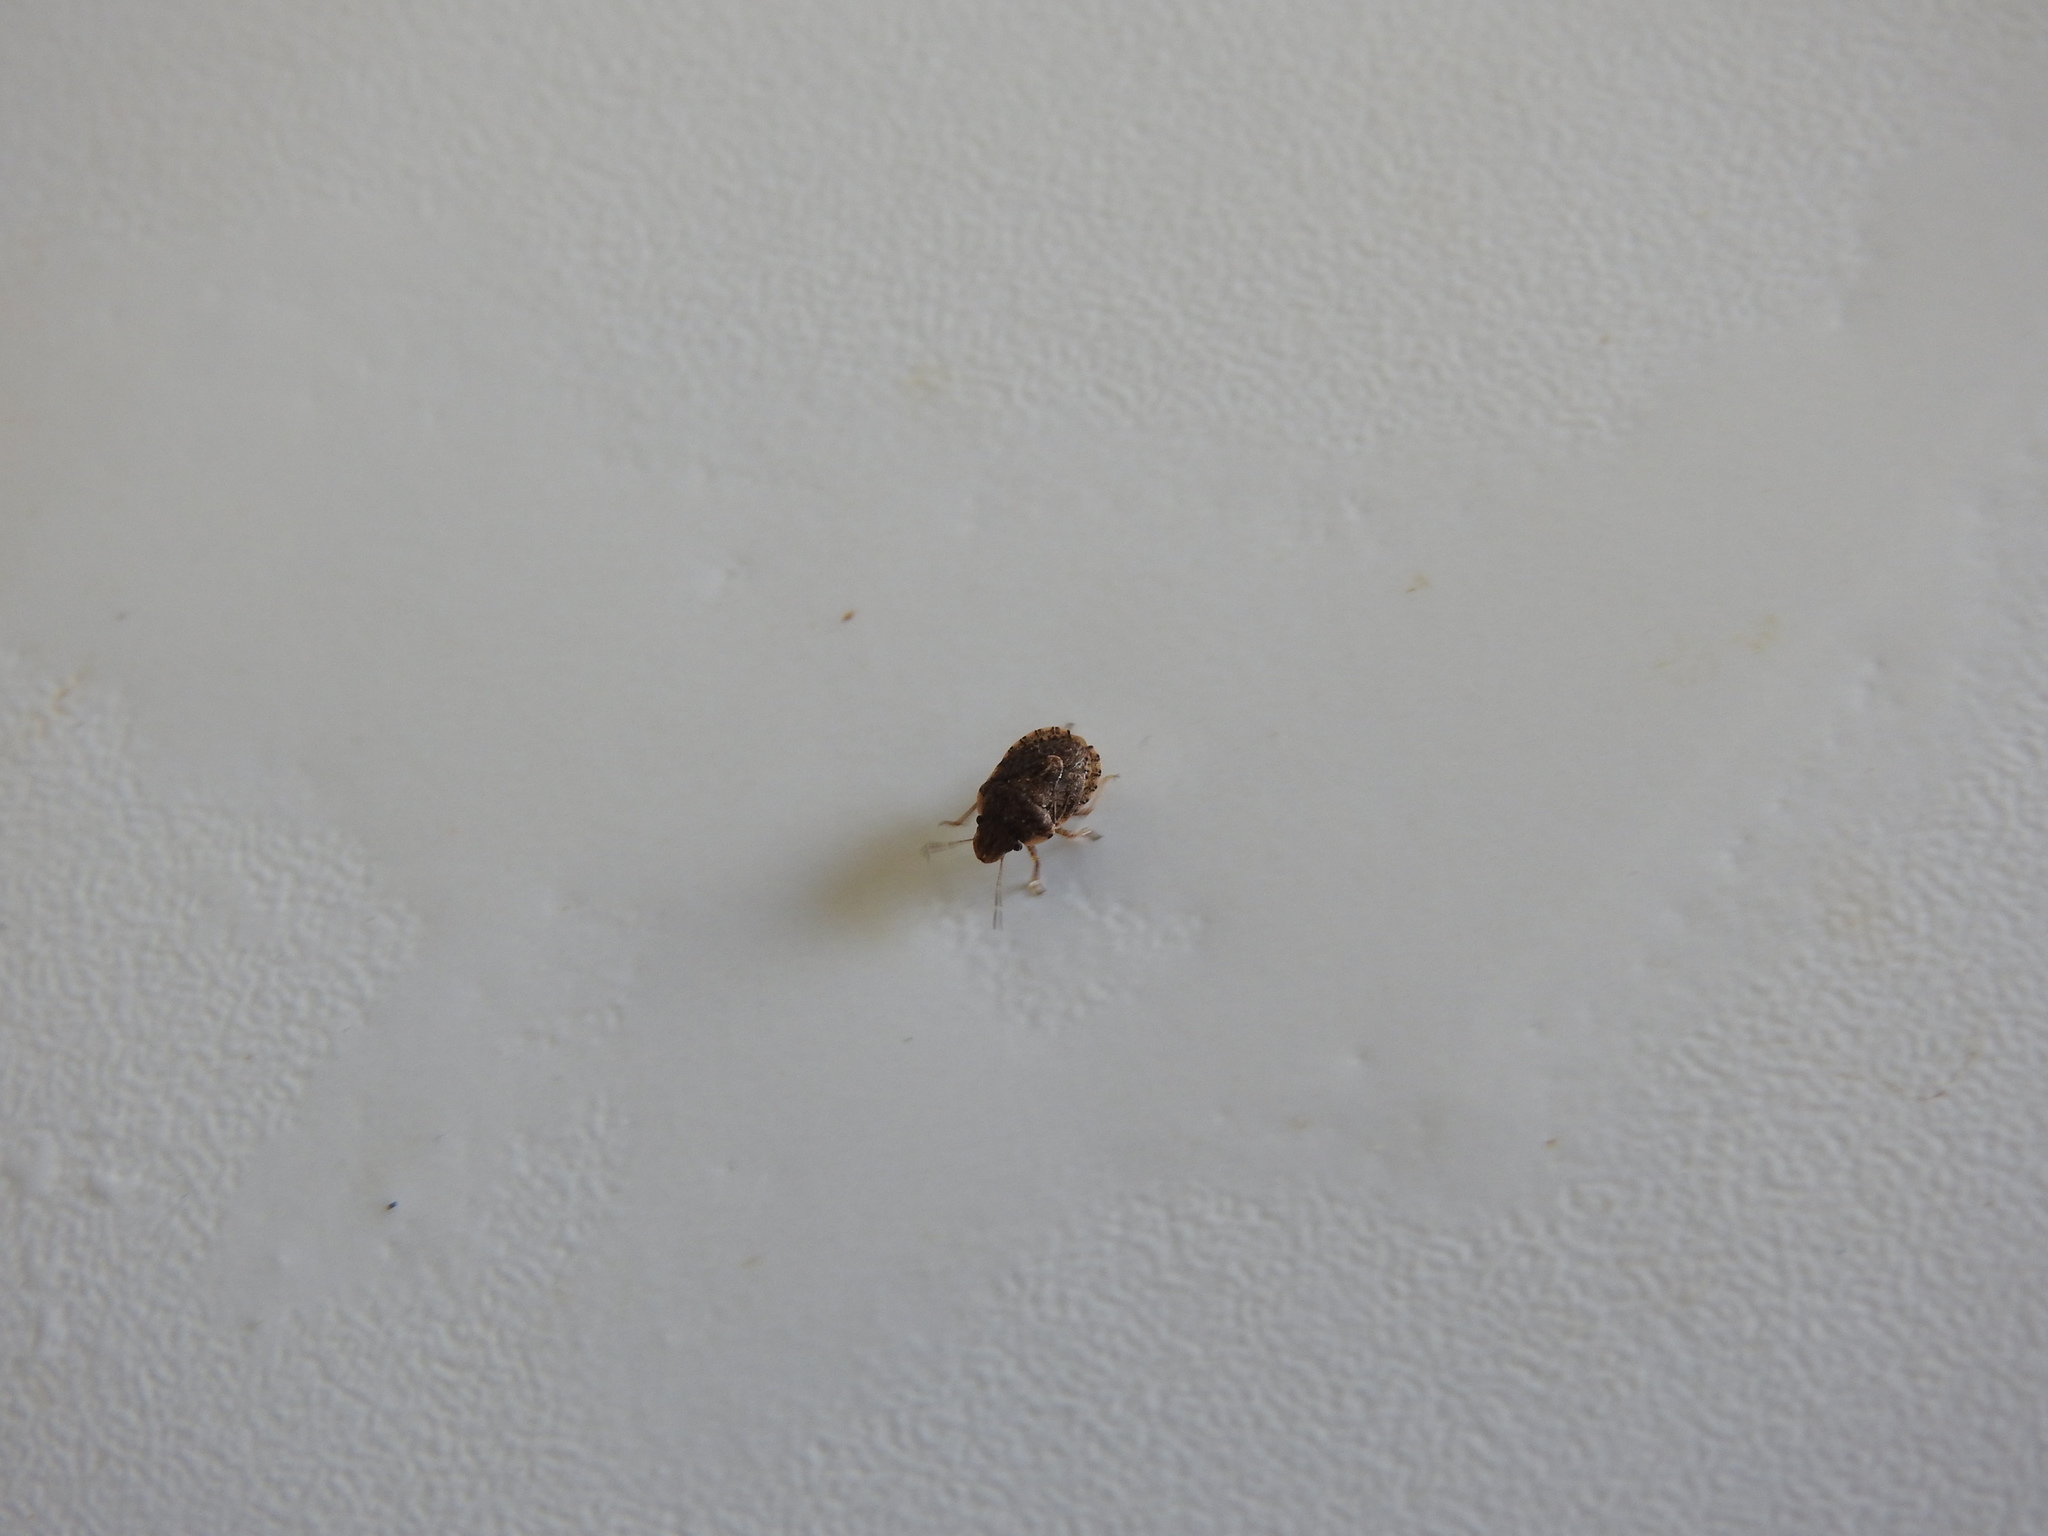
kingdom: Animalia
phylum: Arthropoda
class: Insecta
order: Hemiptera
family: Pentatomidae
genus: Sciocoris
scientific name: Sciocoris sideritidis
